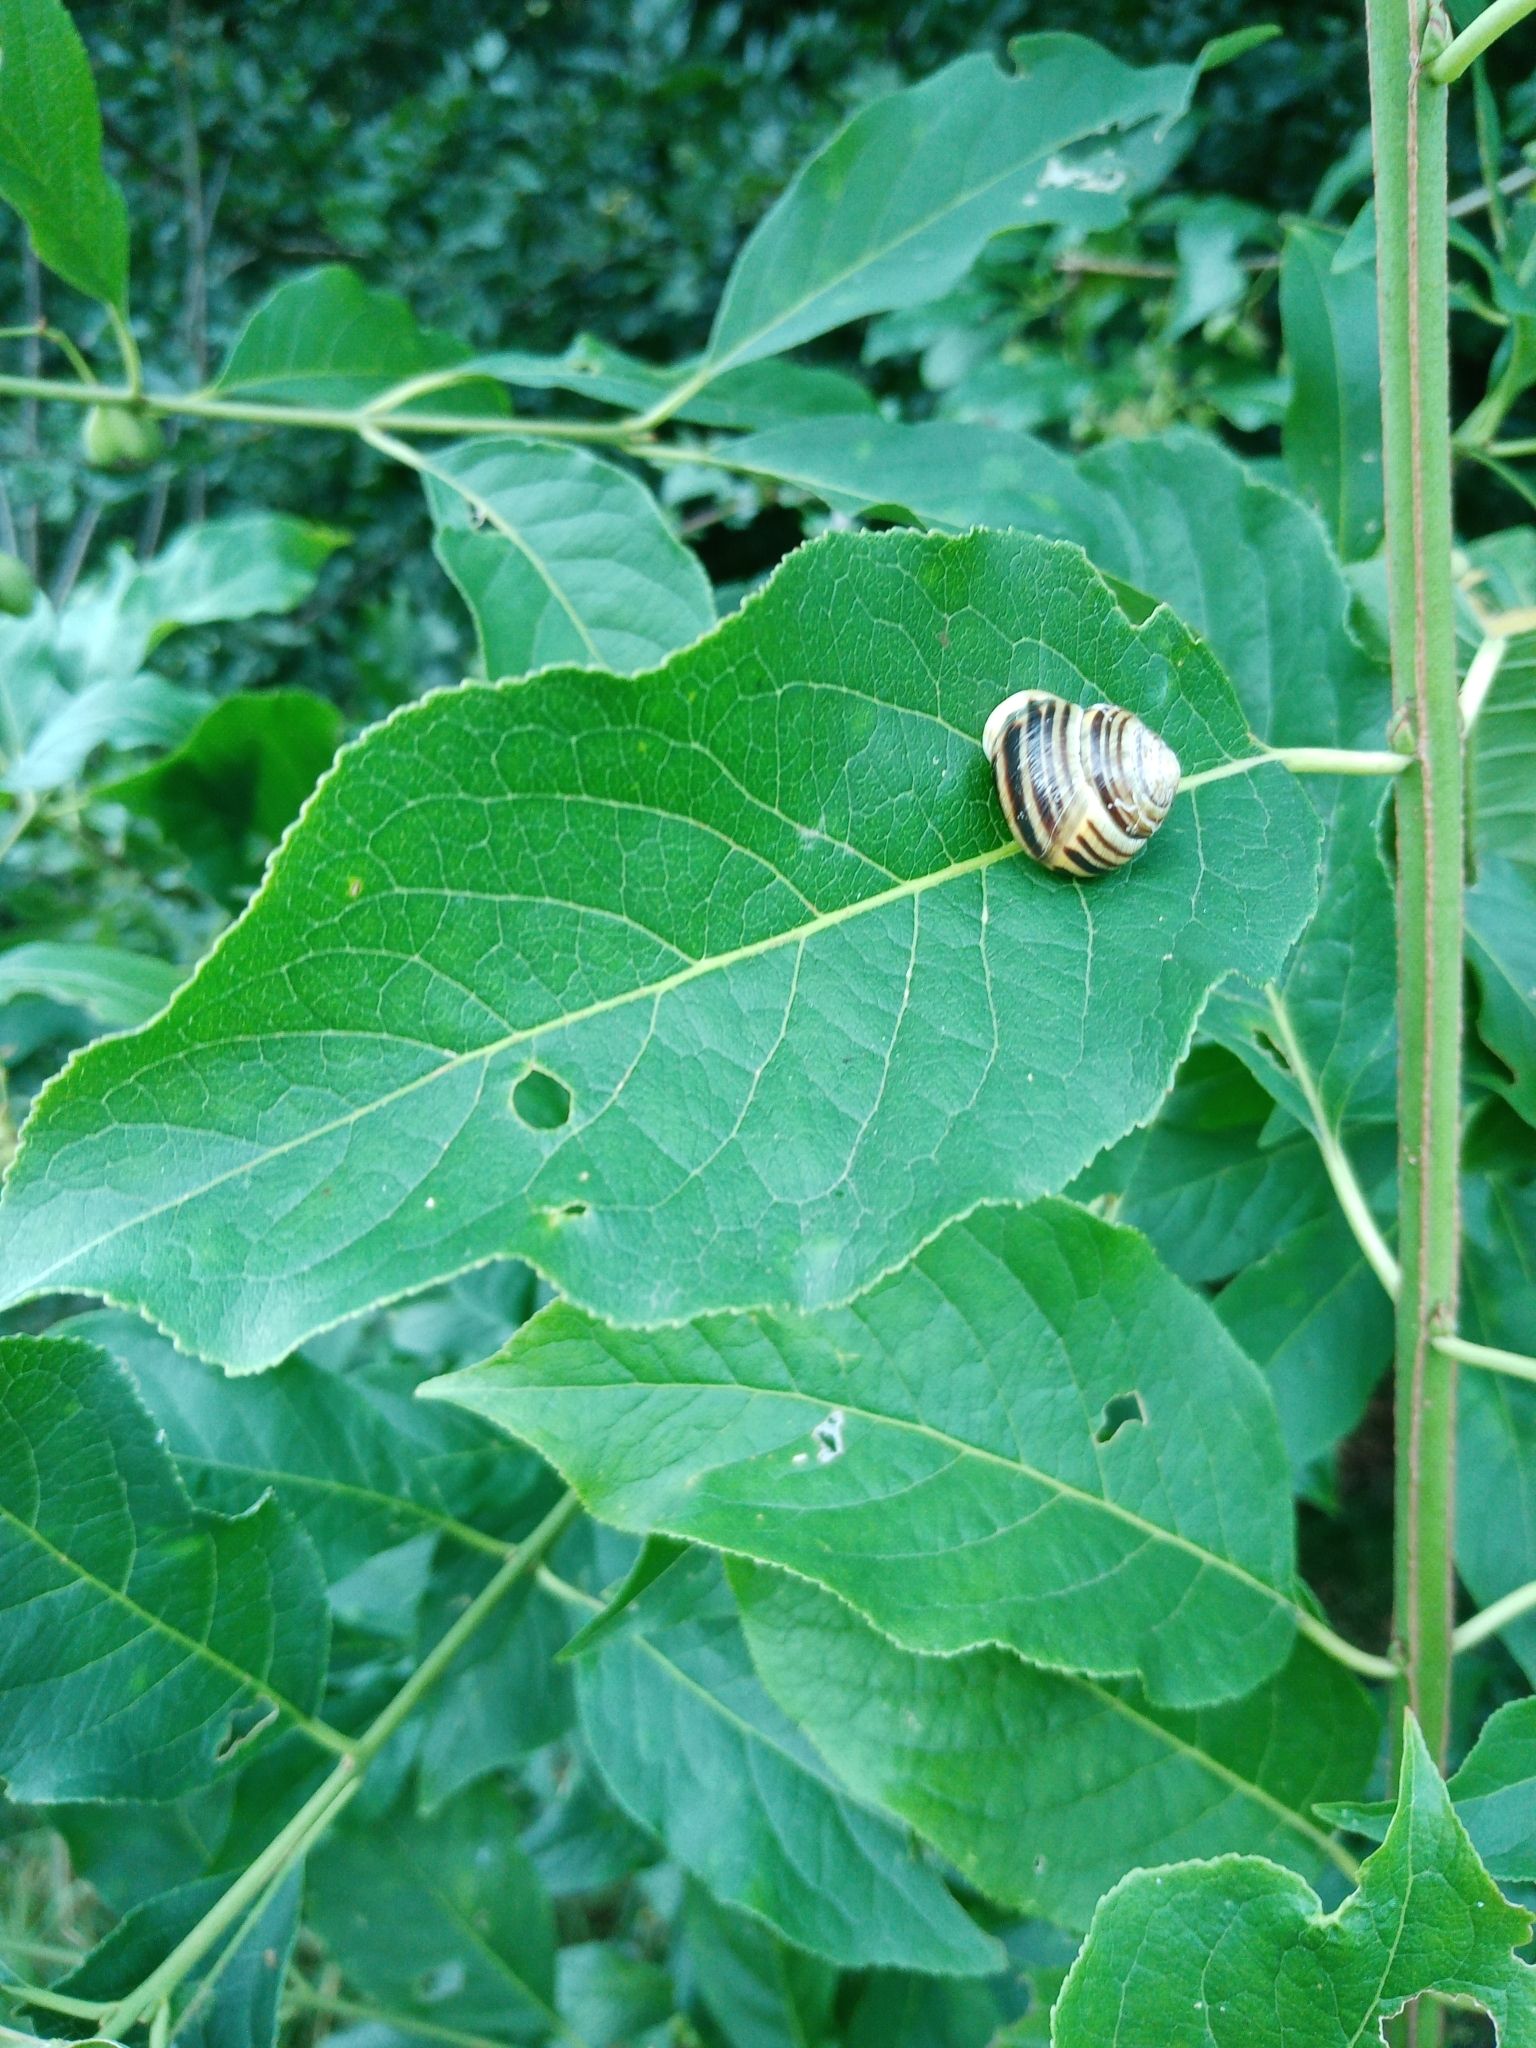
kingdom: Animalia
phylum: Mollusca
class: Gastropoda
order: Stylommatophora
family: Helicidae
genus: Cepaea
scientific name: Cepaea hortensis
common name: White-lip gardensnail
